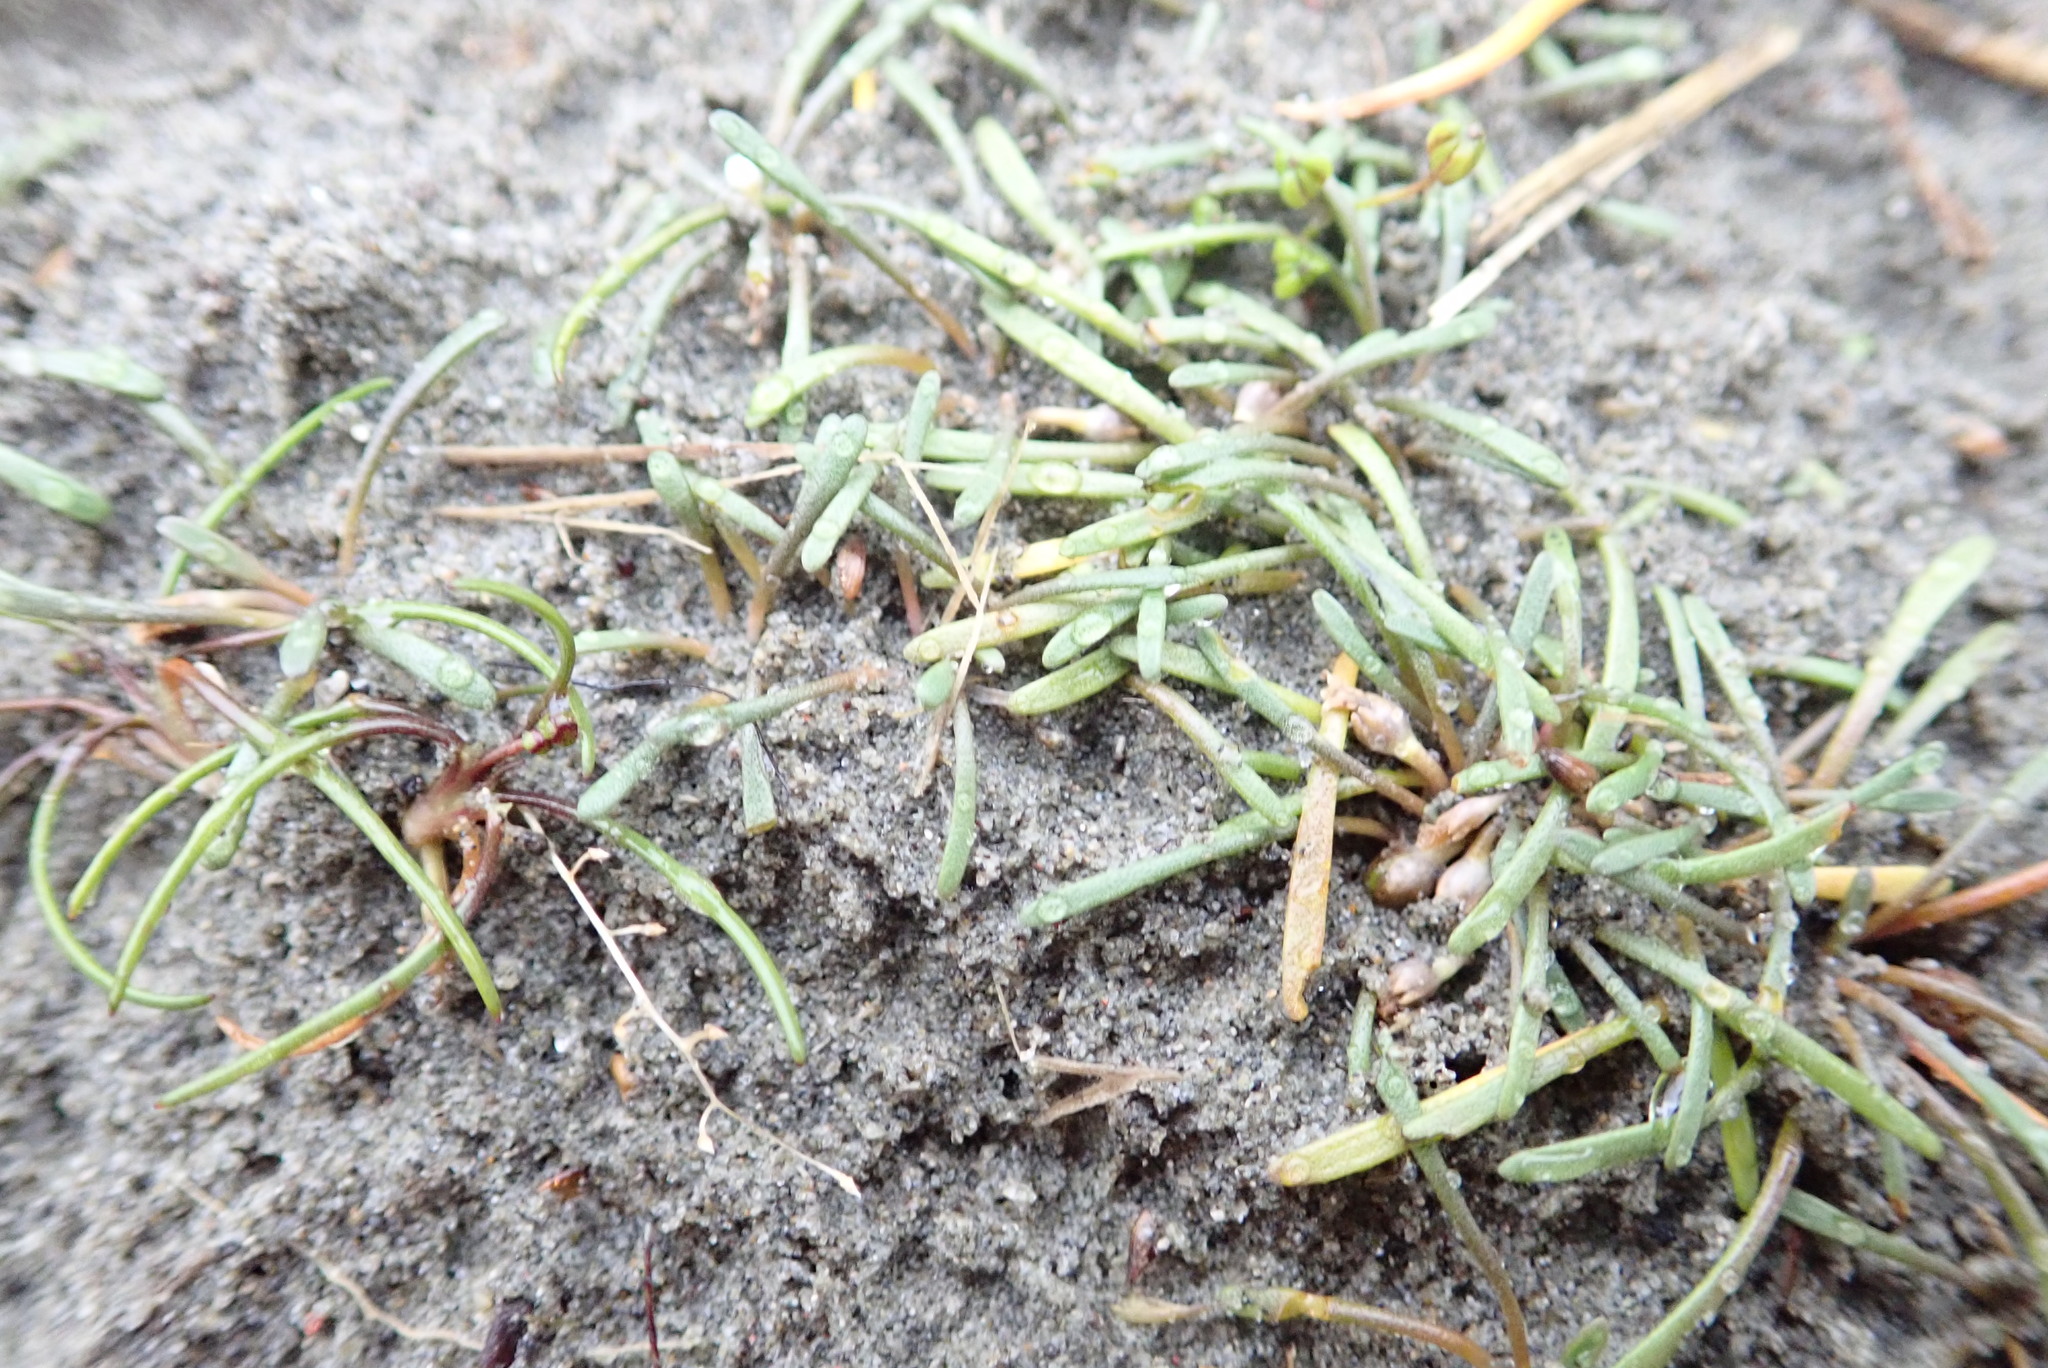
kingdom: Plantae
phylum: Tracheophyta
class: Magnoliopsida
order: Lamiales
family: Scrophulariaceae
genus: Limosella
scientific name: Limosella australis
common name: Welsh mudwort
